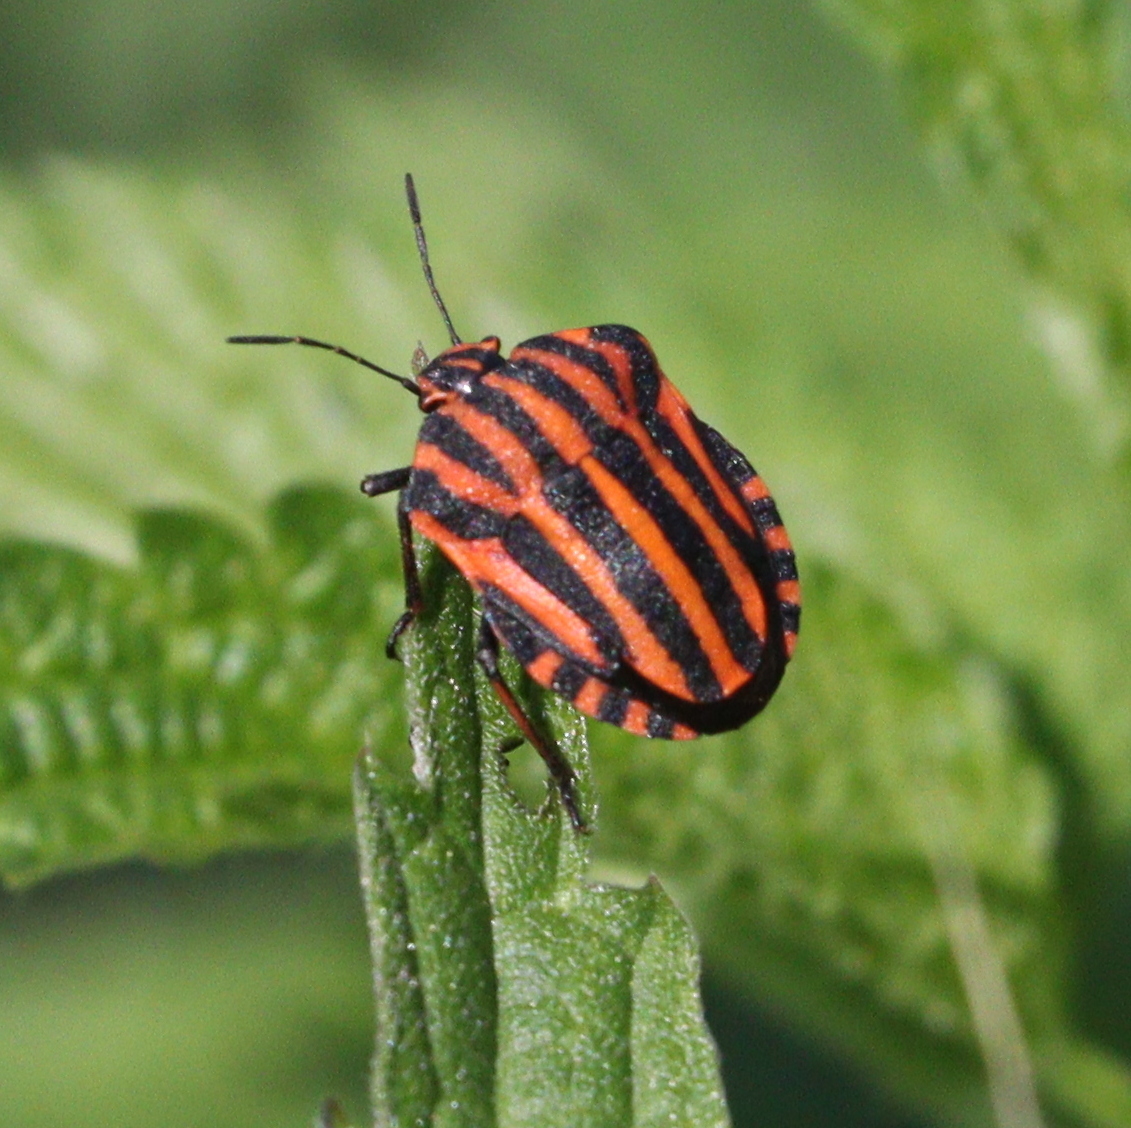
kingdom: Animalia
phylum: Arthropoda
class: Insecta
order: Hemiptera
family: Pentatomidae
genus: Graphosoma
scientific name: Graphosoma italicum
